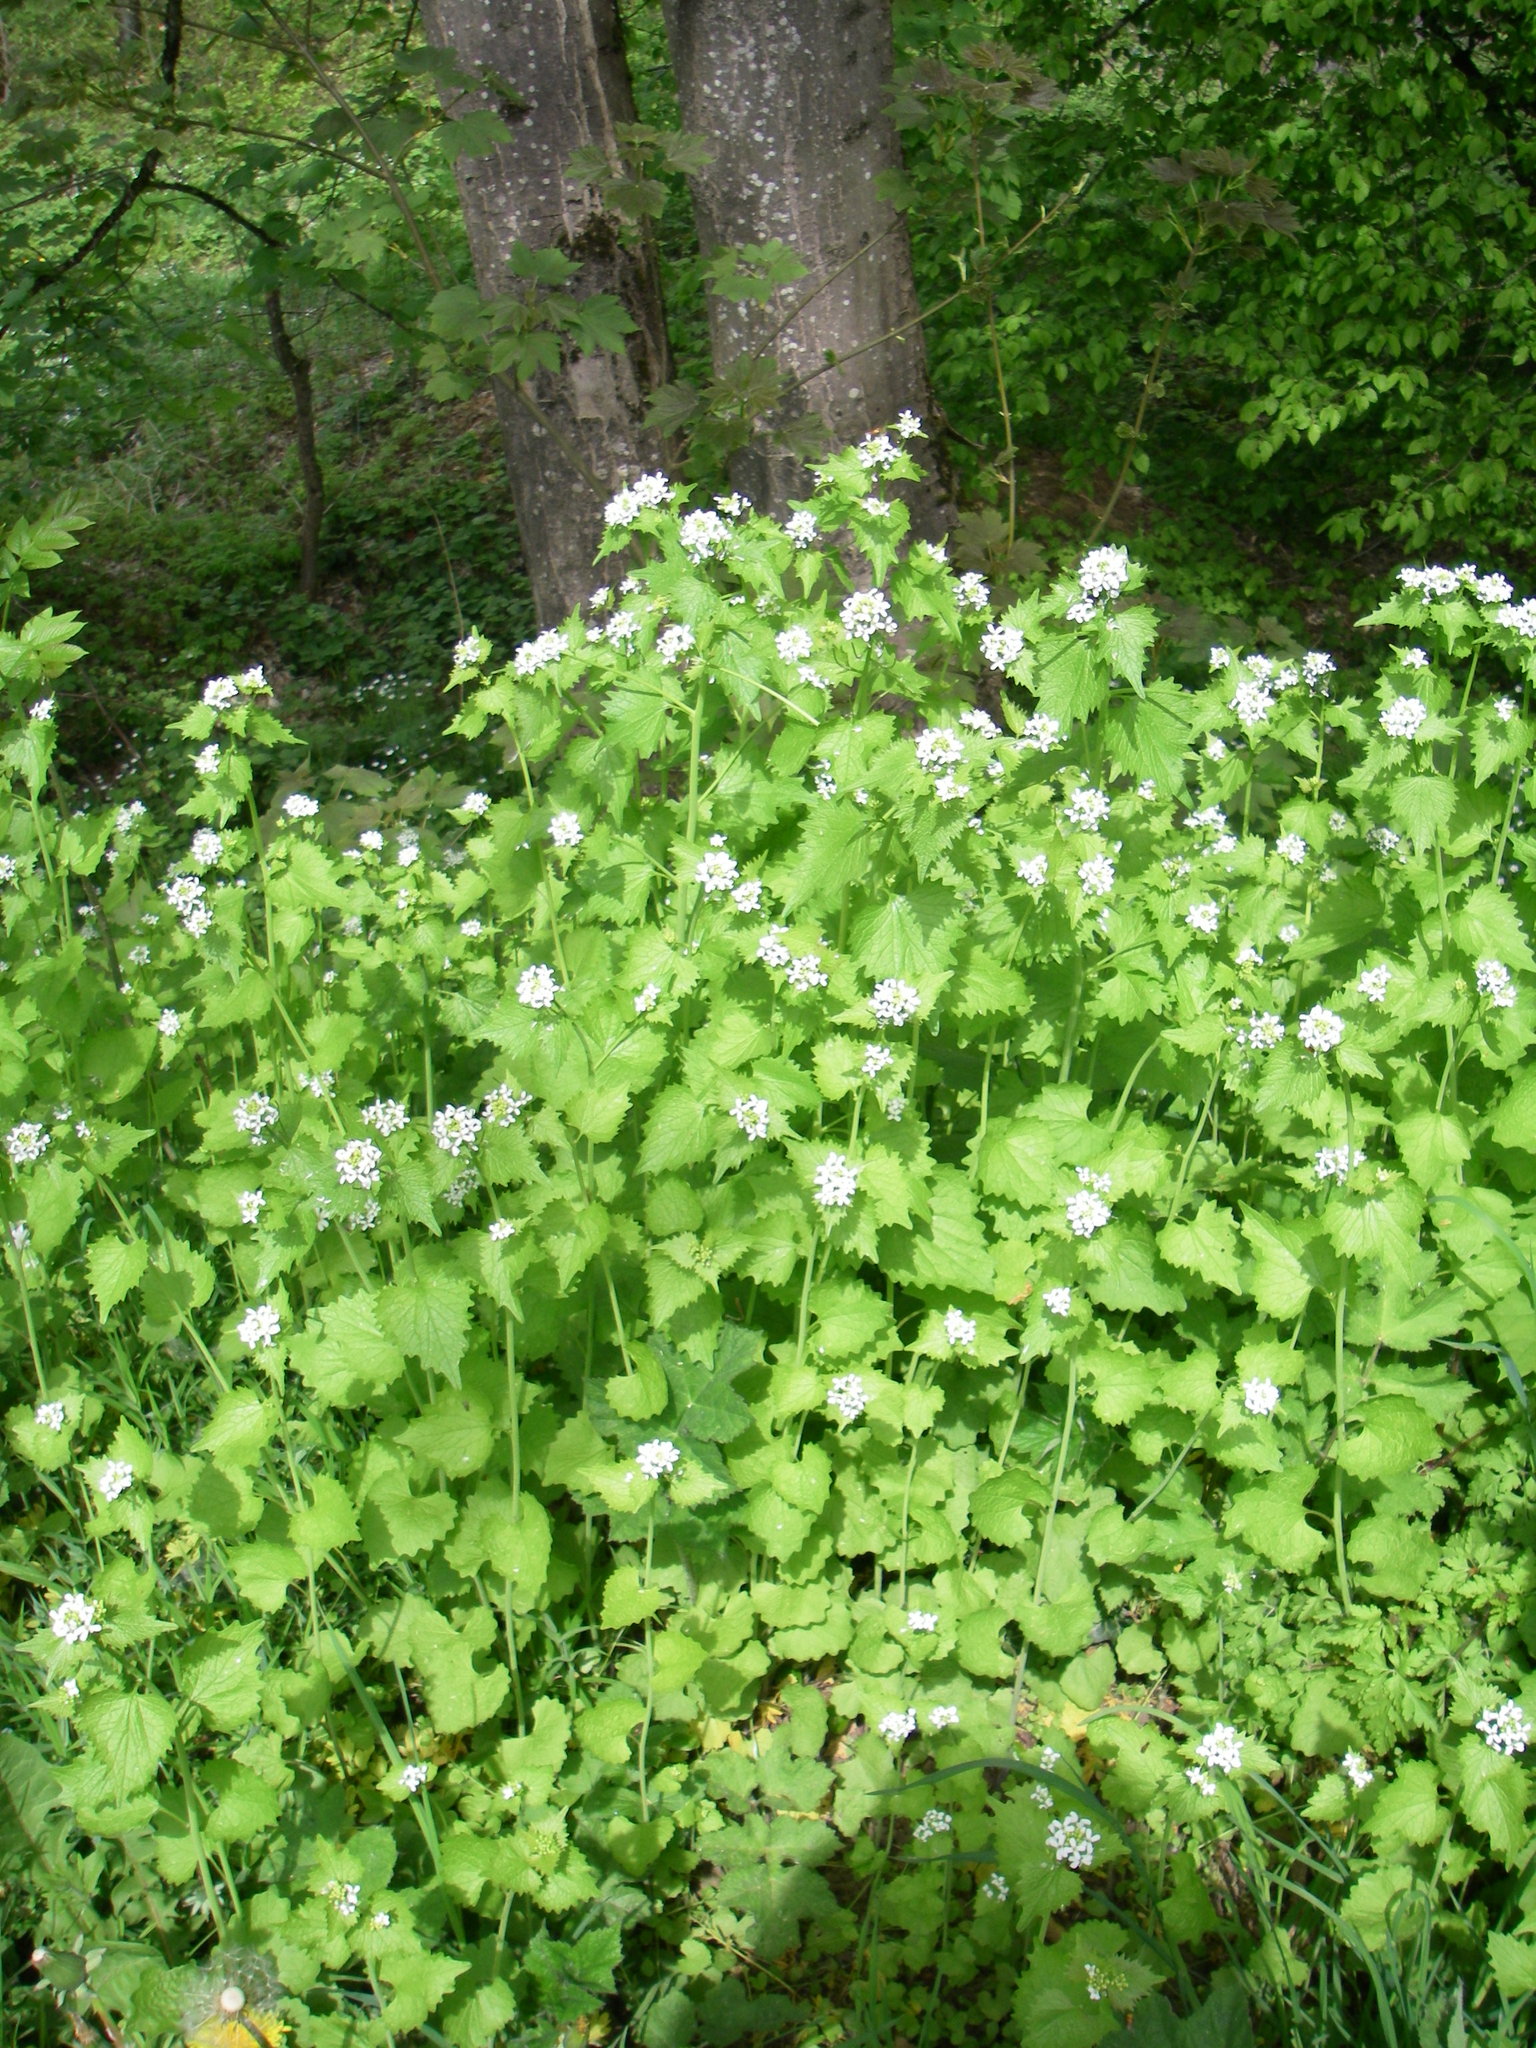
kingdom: Plantae
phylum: Tracheophyta
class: Magnoliopsida
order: Brassicales
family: Brassicaceae
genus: Alliaria
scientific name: Alliaria petiolata
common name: Garlic mustard
